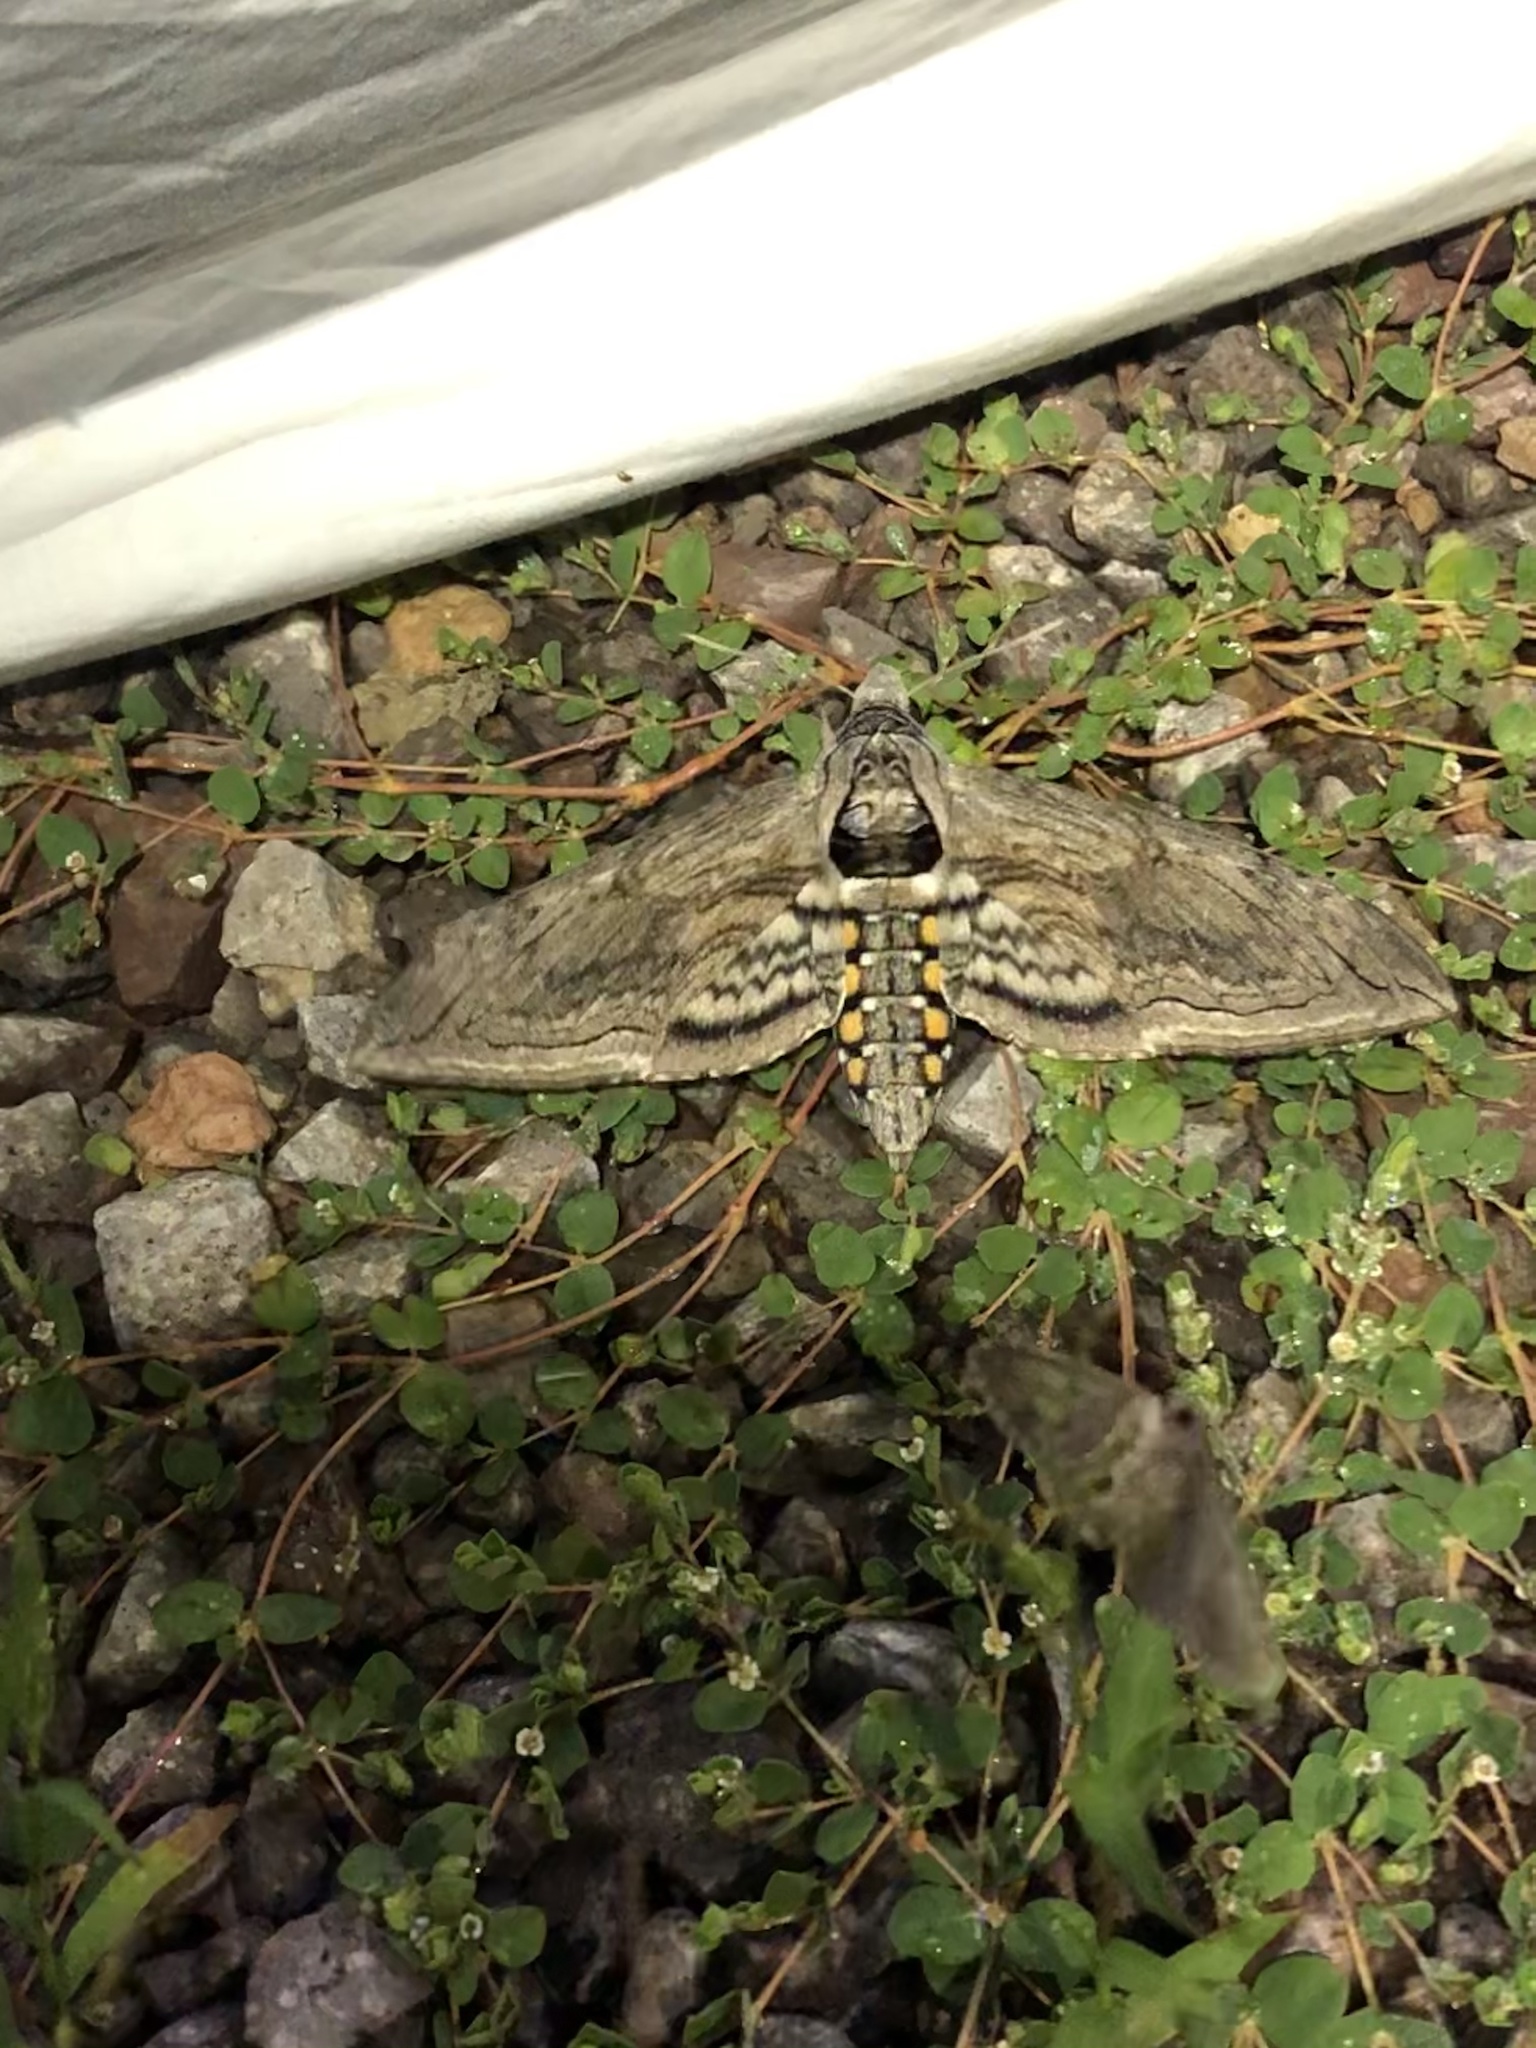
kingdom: Animalia
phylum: Arthropoda
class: Insecta
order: Lepidoptera
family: Sphingidae
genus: Manduca
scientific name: Manduca quinquemaculatus
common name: Five-spotted hawk-moth
